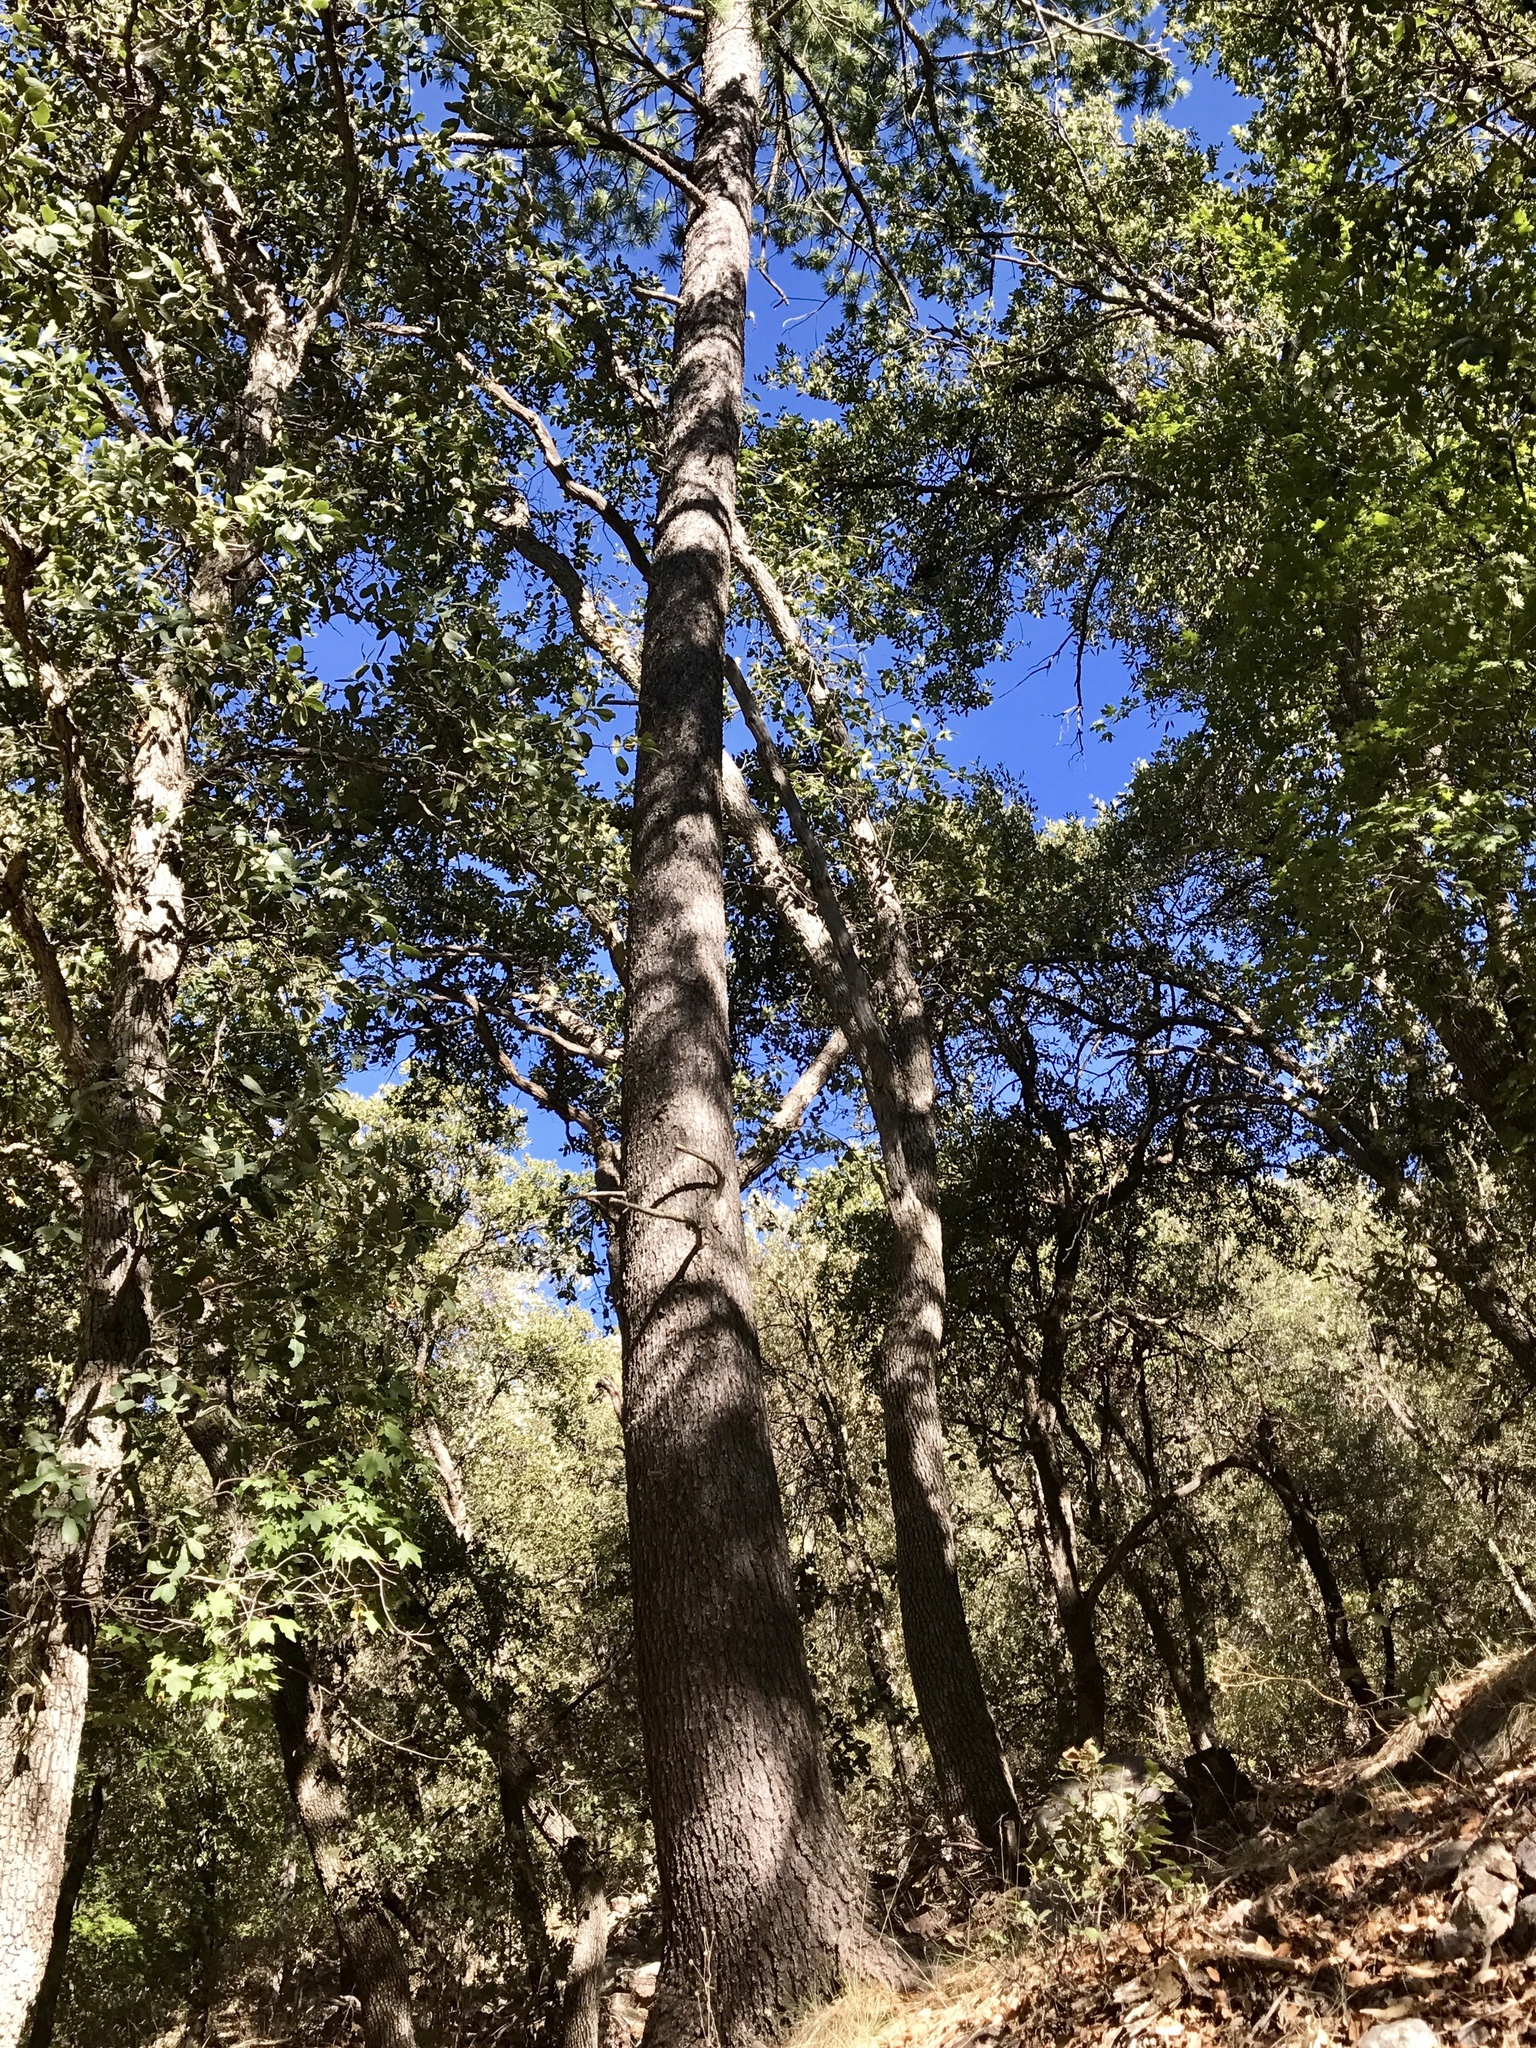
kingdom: Plantae
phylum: Tracheophyta
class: Pinopsida
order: Pinales
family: Pinaceae
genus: Pinus
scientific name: Pinus strobiformis
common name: Southwestern white pine
